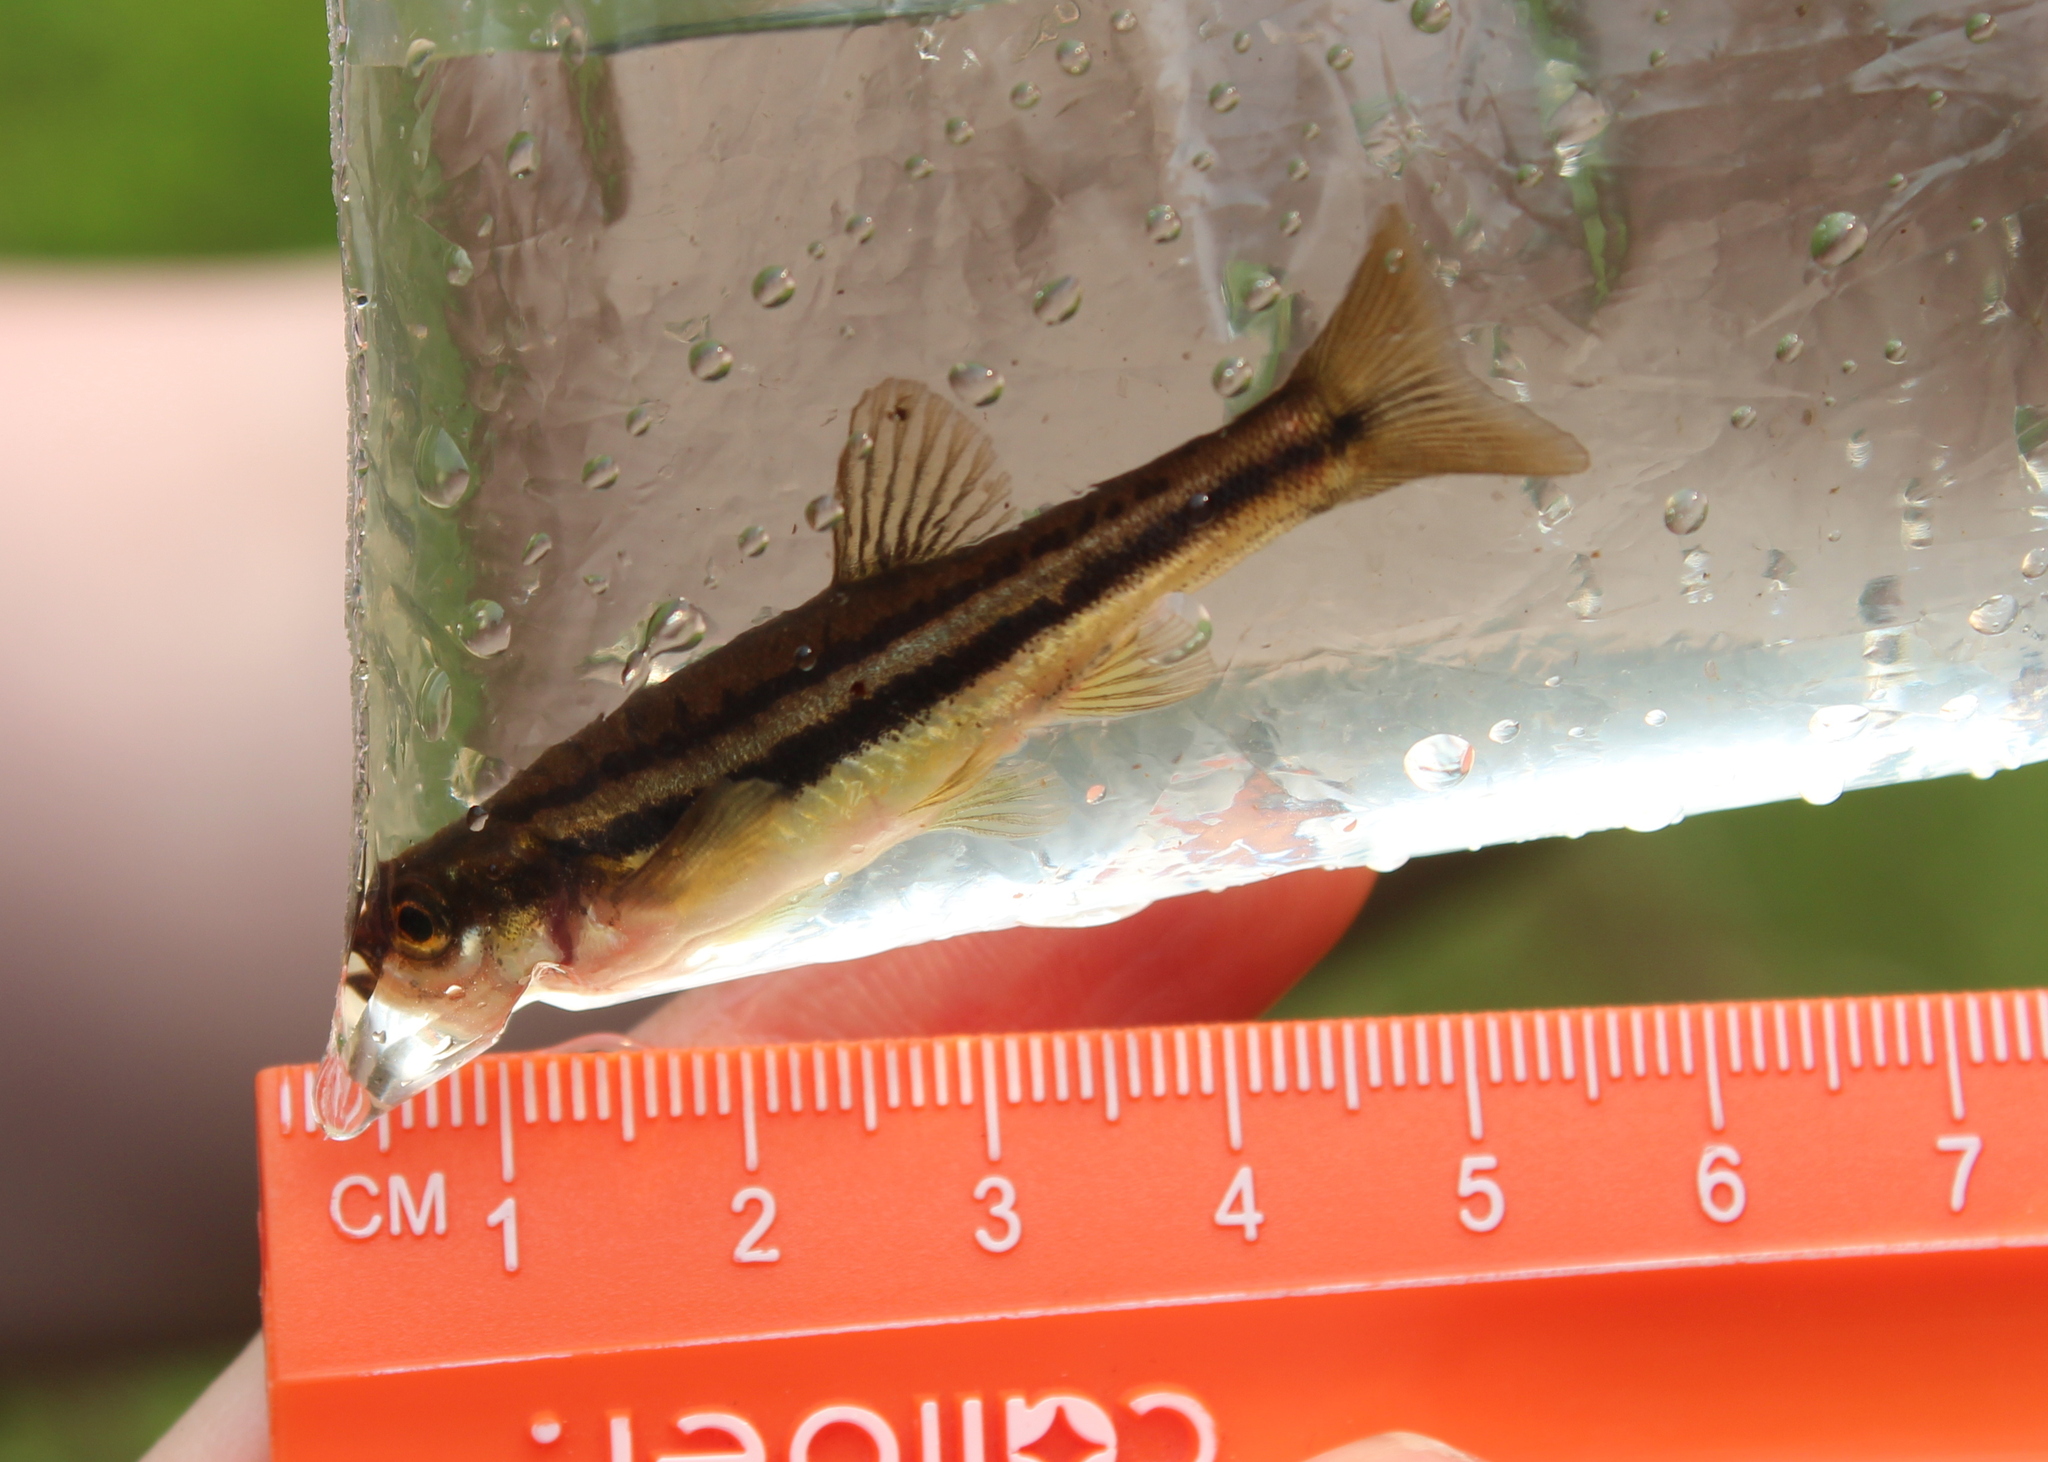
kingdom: Animalia
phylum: Chordata
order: Cypriniformes
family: Cyprinidae
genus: Chrosomus
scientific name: Chrosomus eos
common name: Northern redbelly dace
